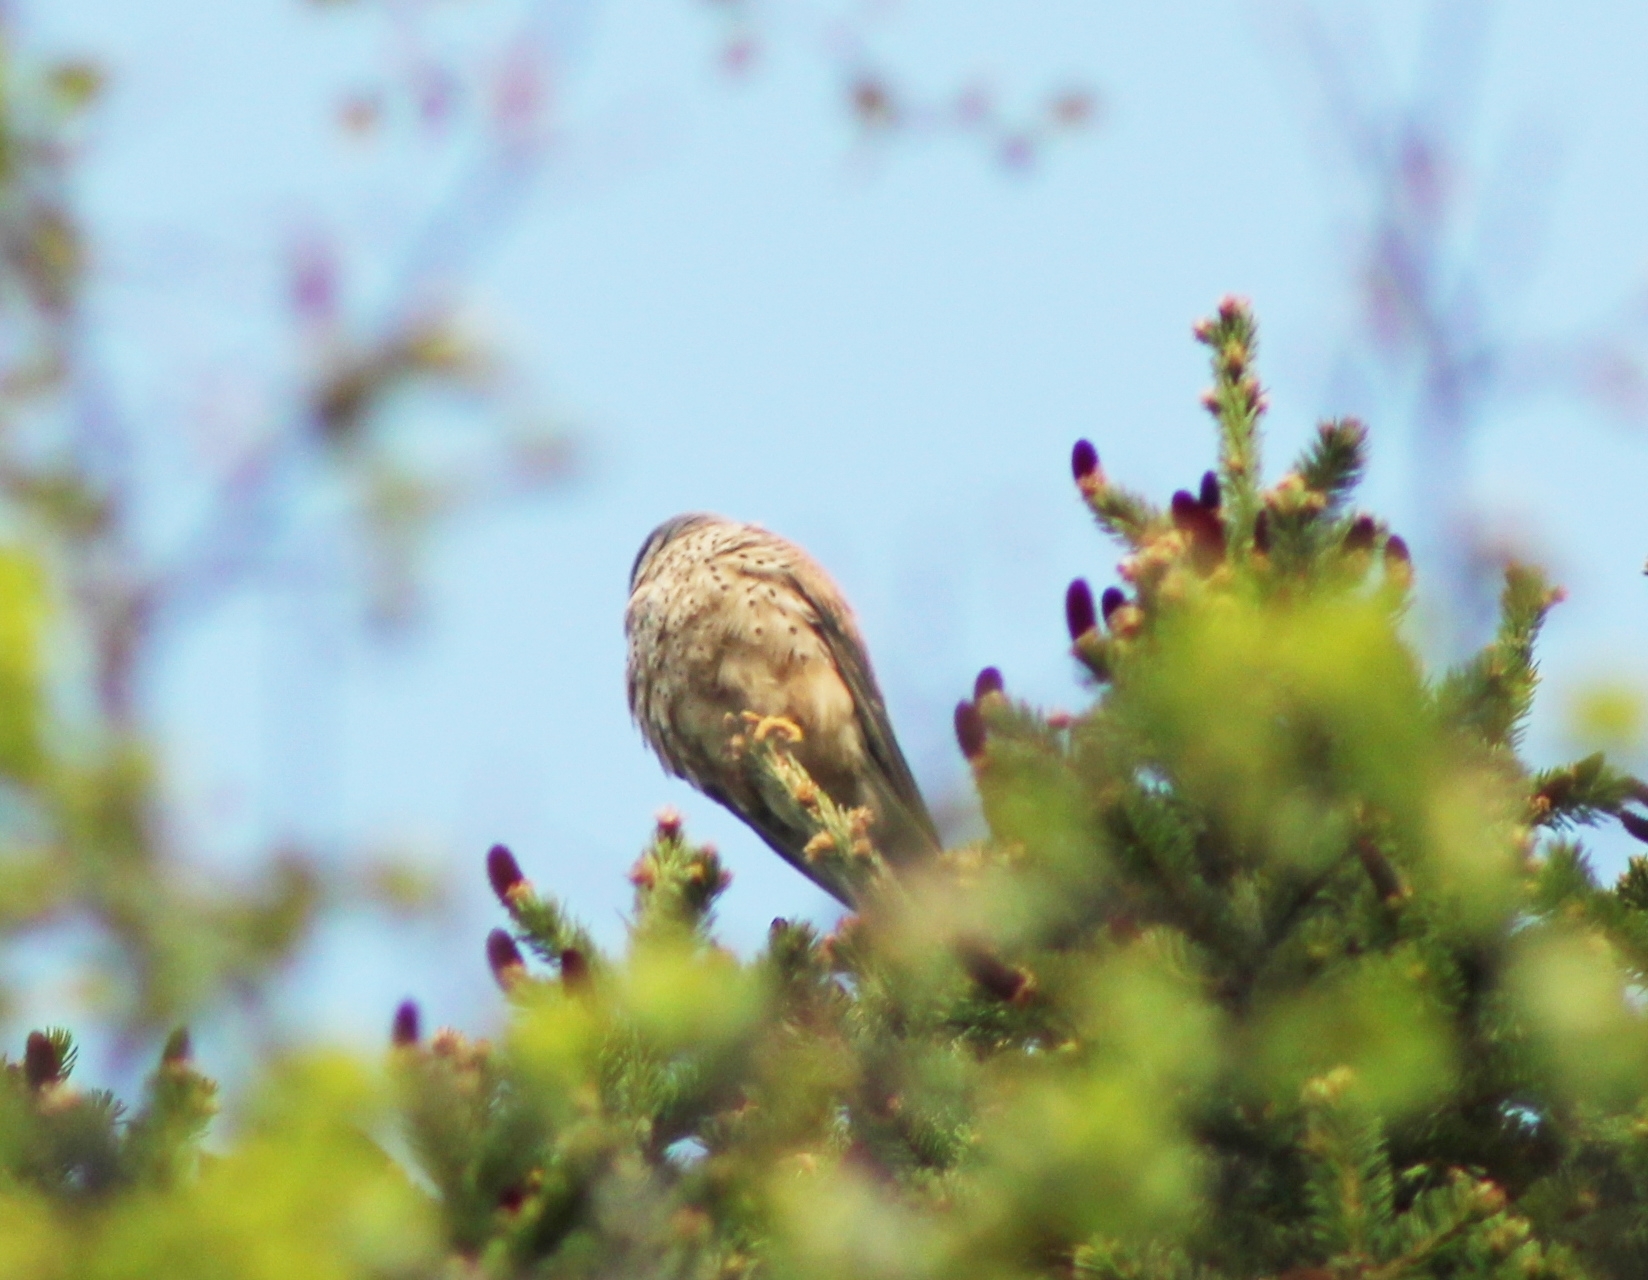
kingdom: Animalia
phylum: Chordata
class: Aves
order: Falconiformes
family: Falconidae
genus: Falco
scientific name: Falco tinnunculus
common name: Common kestrel
